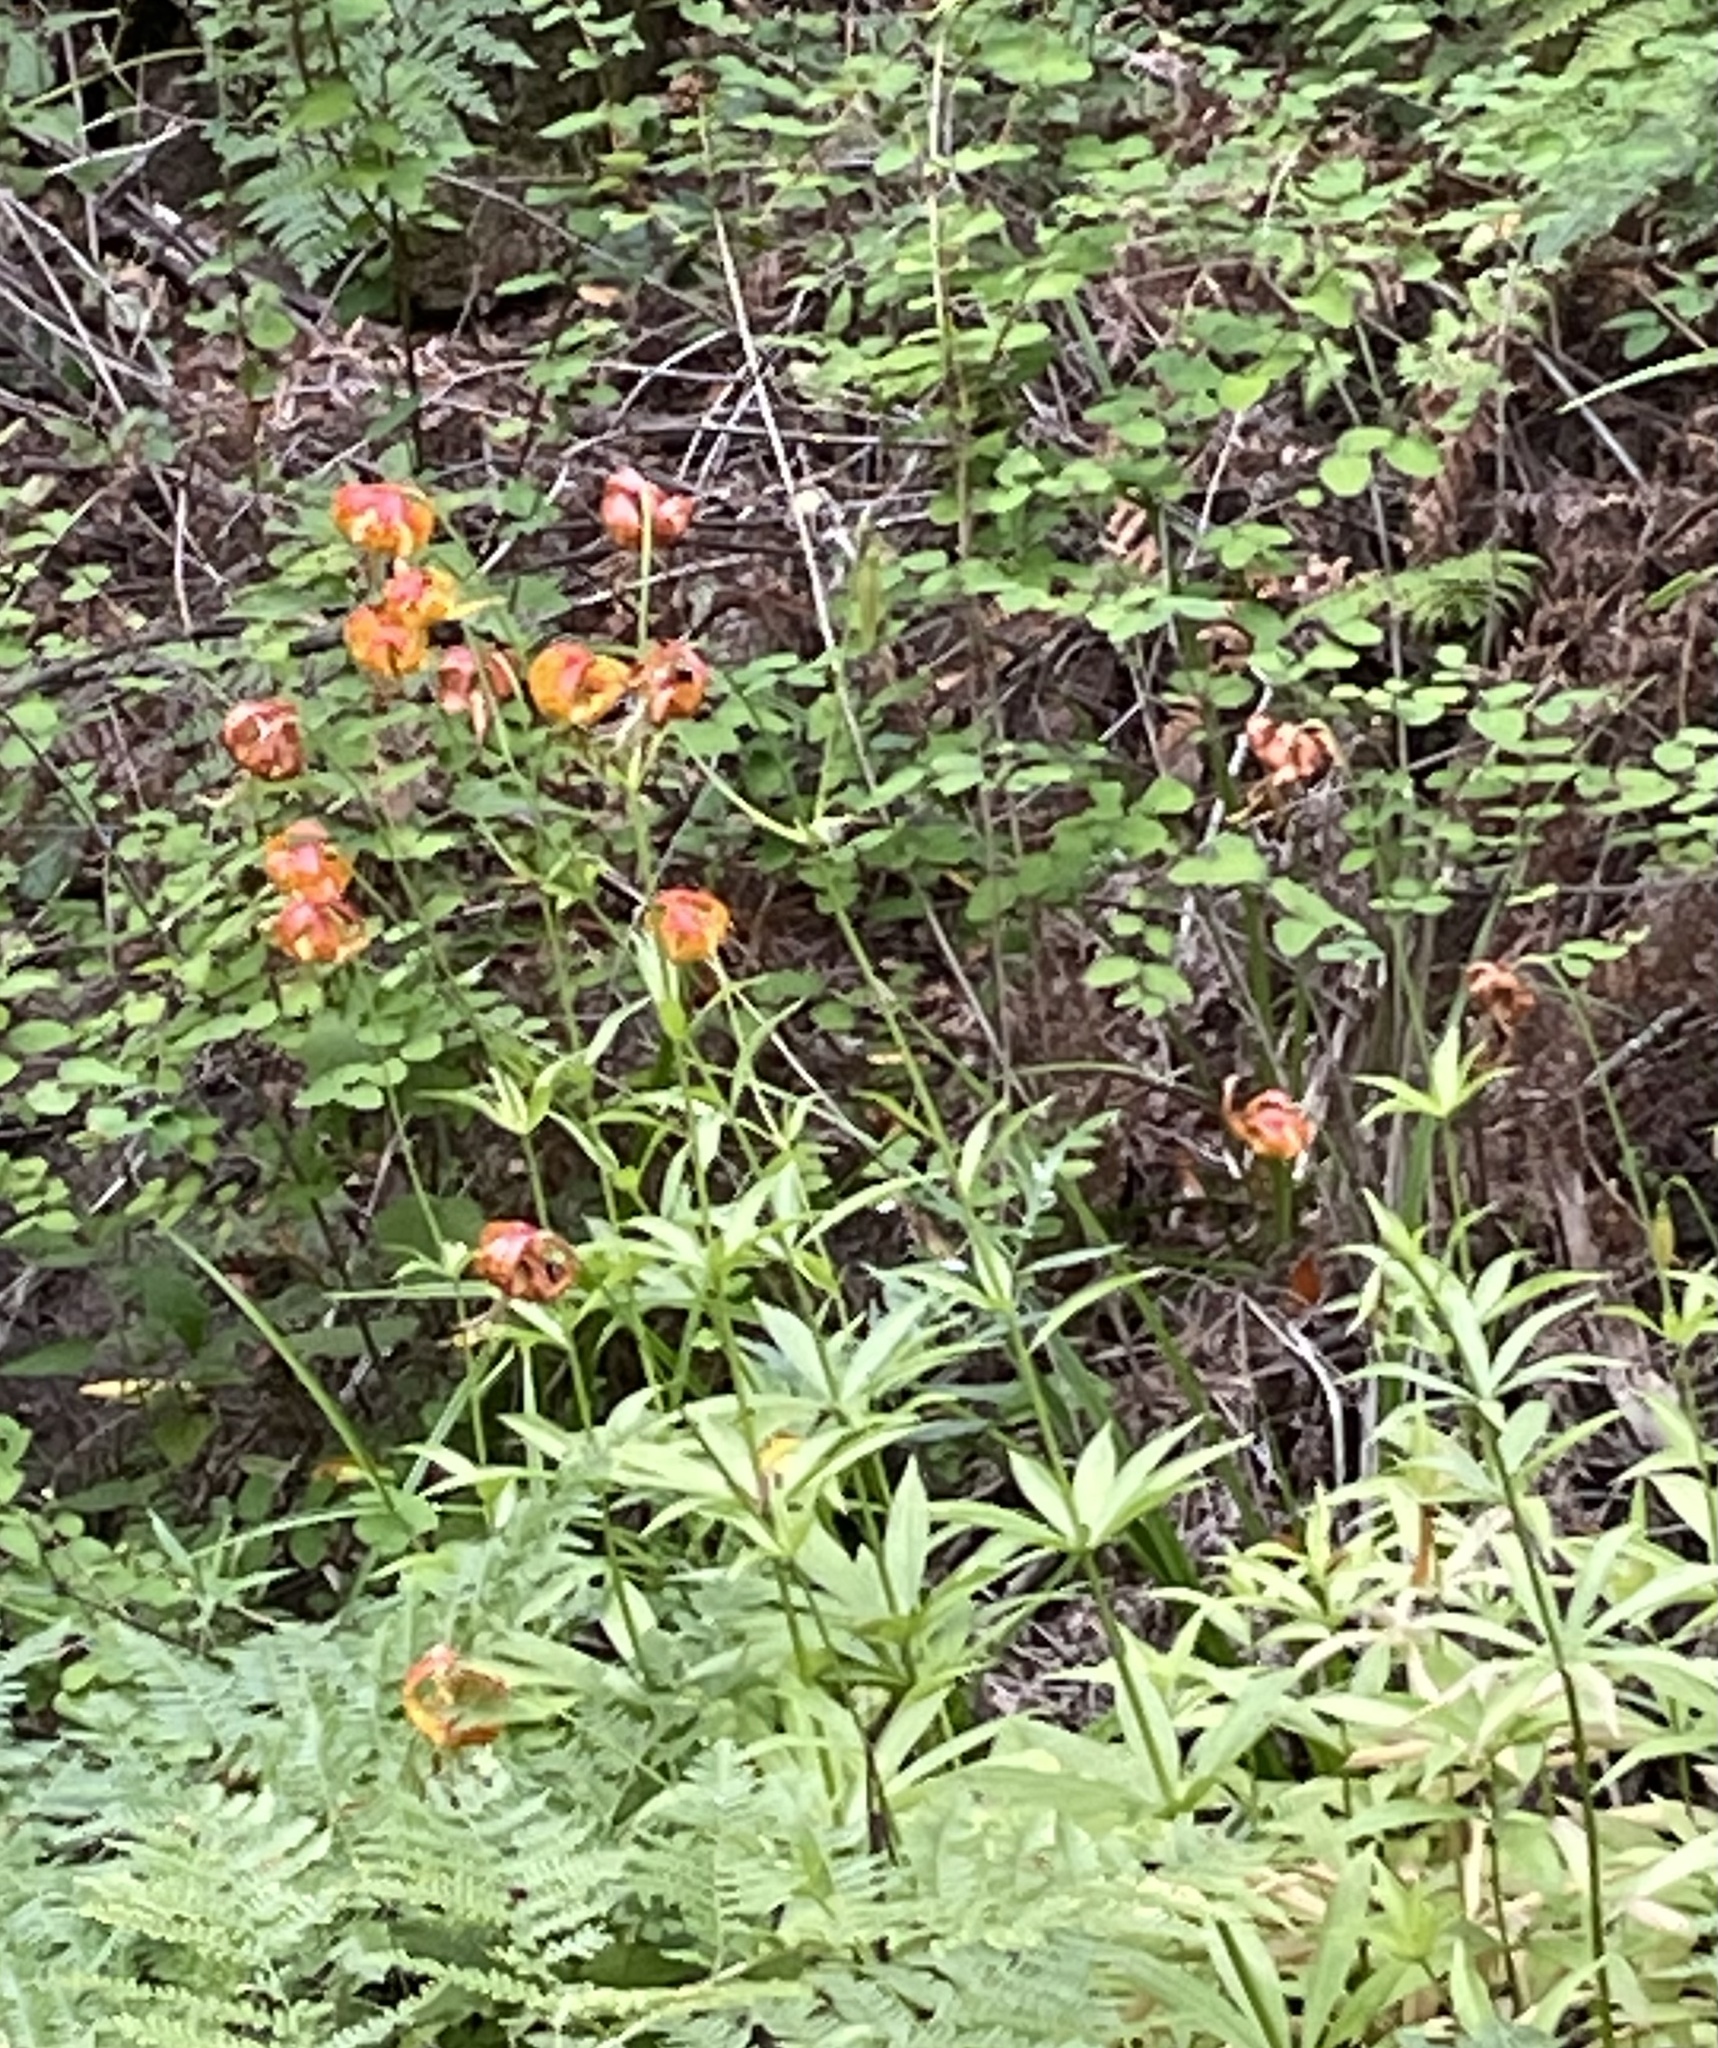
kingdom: Plantae
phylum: Tracheophyta
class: Liliopsida
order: Liliales
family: Liliaceae
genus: Lilium
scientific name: Lilium pardalinum
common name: Panther lily
